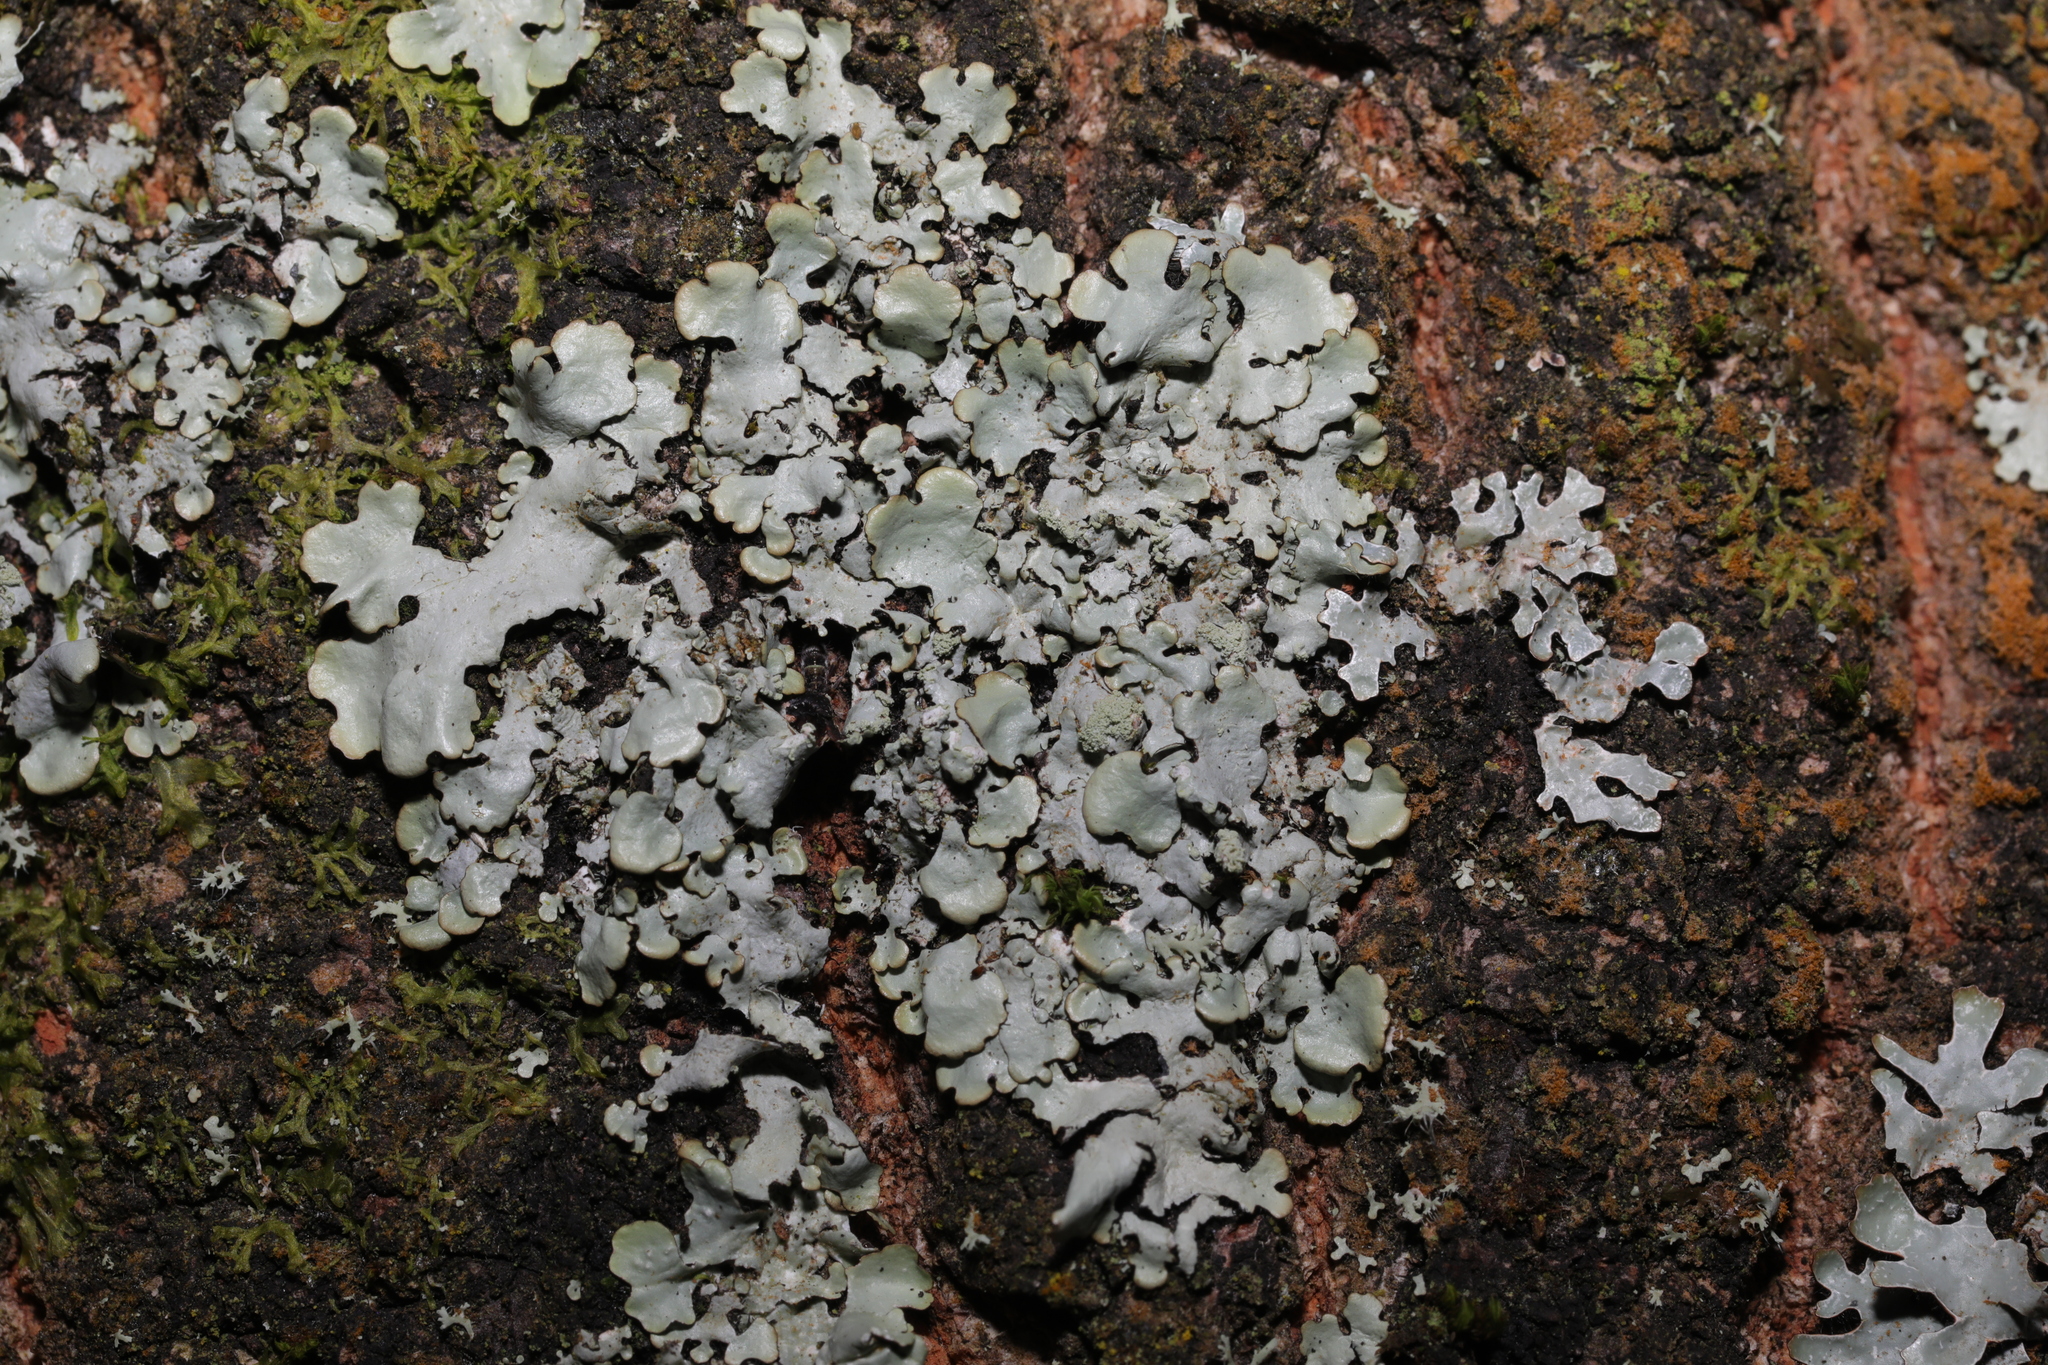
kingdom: Fungi
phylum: Ascomycota
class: Lecanoromycetes
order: Lecanorales
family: Parmeliaceae
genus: Hypotrachyna
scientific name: Hypotrachyna afrorevoluta
